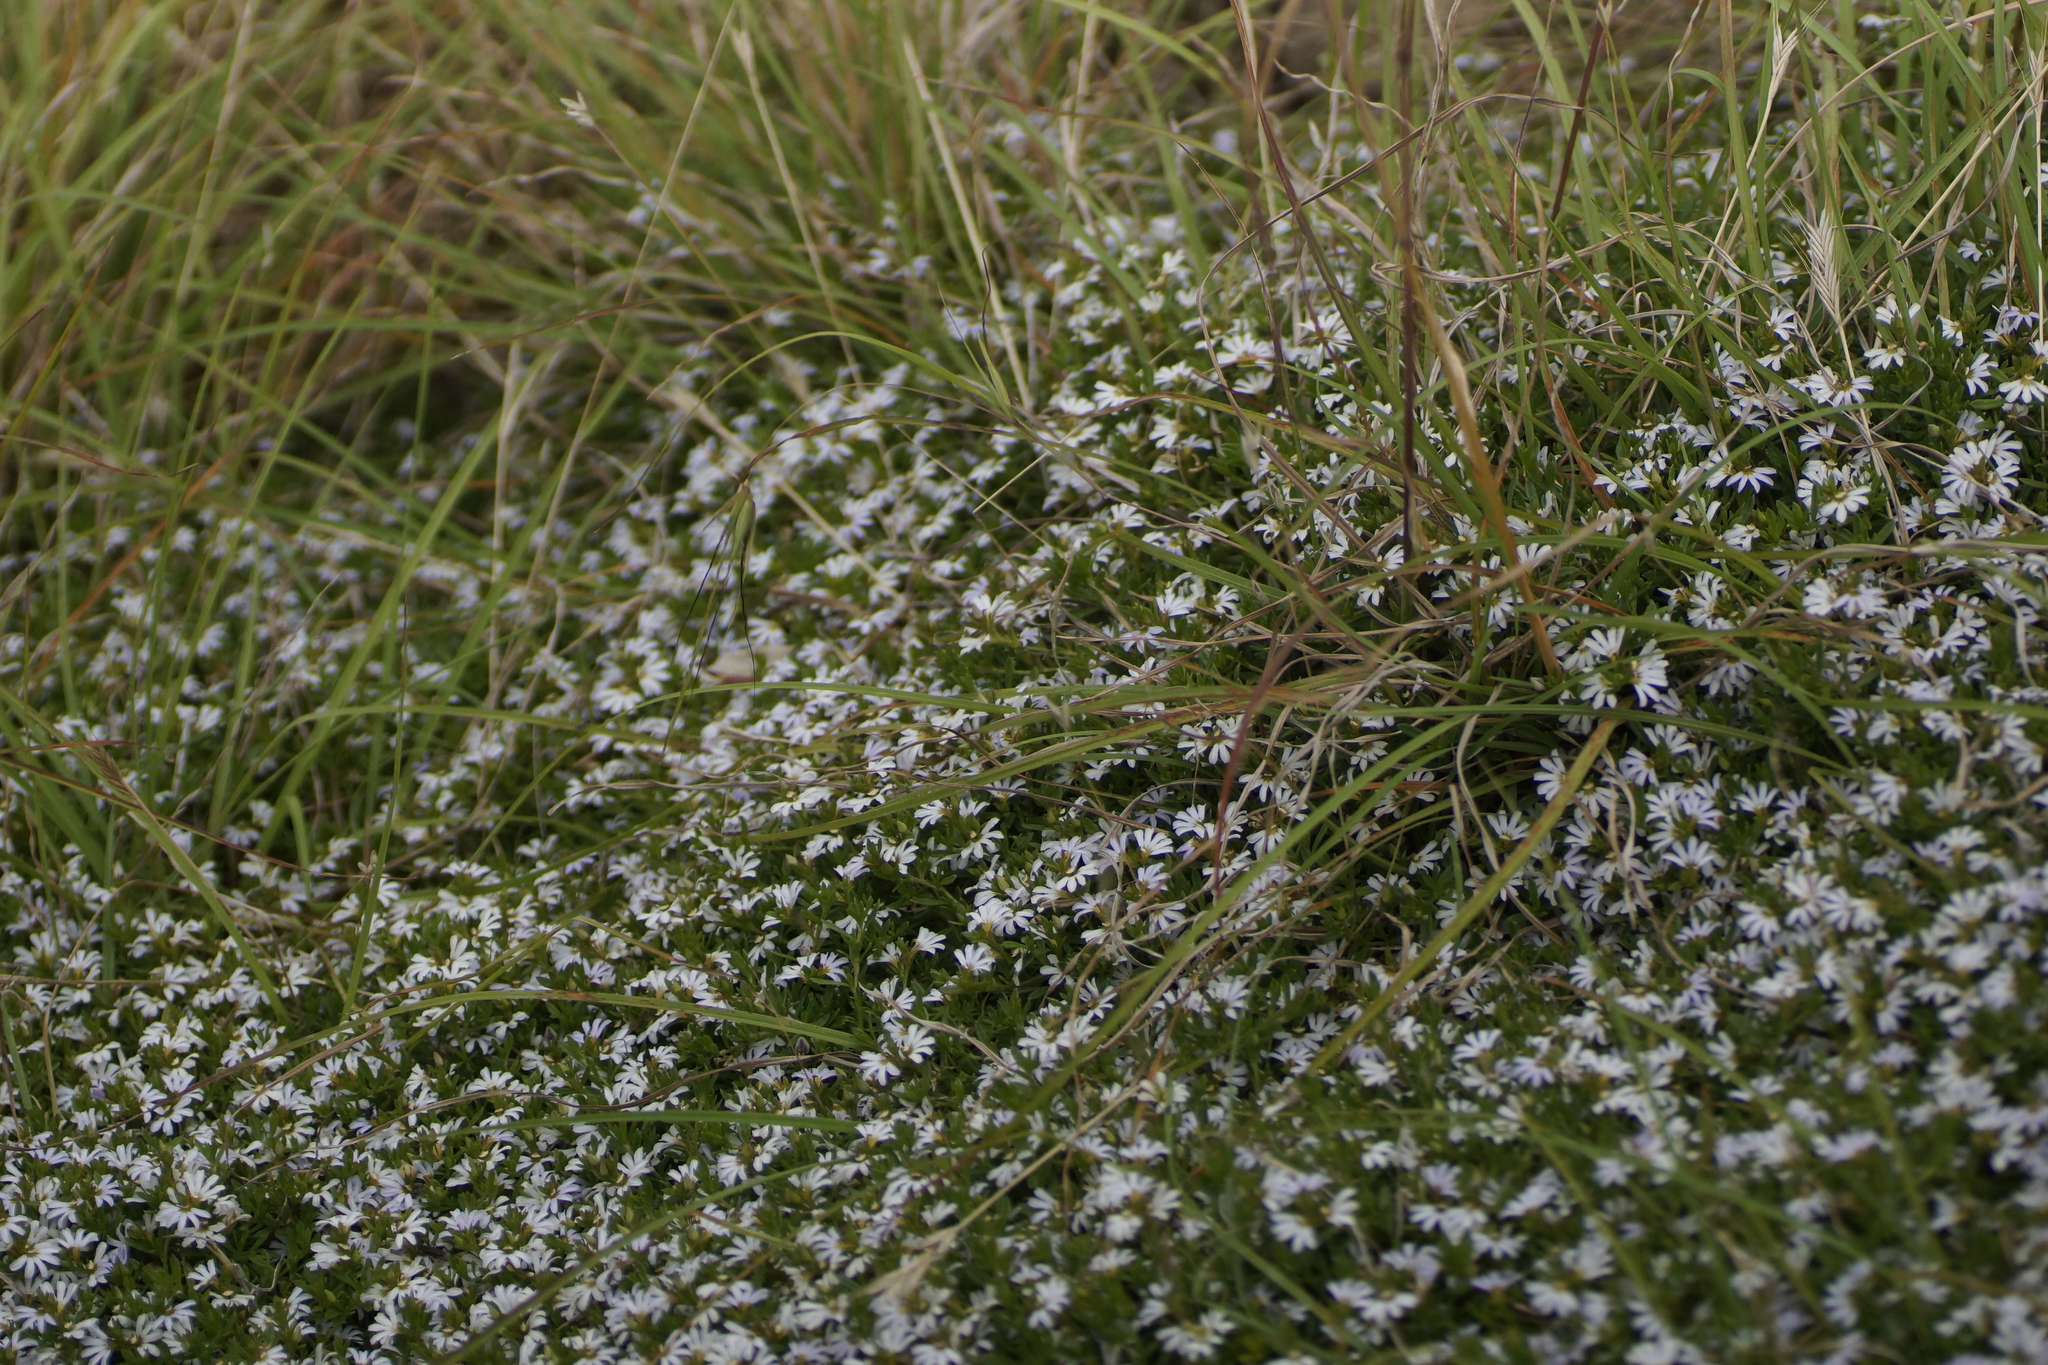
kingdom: Plantae
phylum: Tracheophyta
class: Magnoliopsida
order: Asterales
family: Goodeniaceae
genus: Scaevola
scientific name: Scaevola albida
